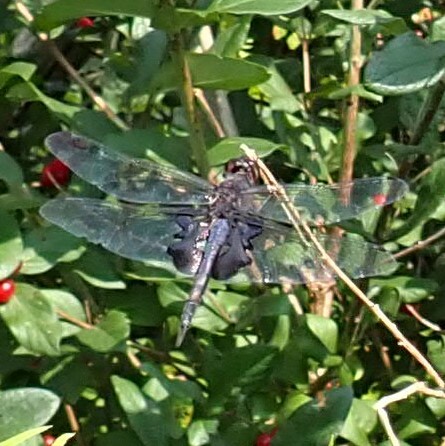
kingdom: Animalia
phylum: Arthropoda
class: Insecta
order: Odonata
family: Libellulidae
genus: Tramea
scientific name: Tramea lacerata
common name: Black saddlebags
